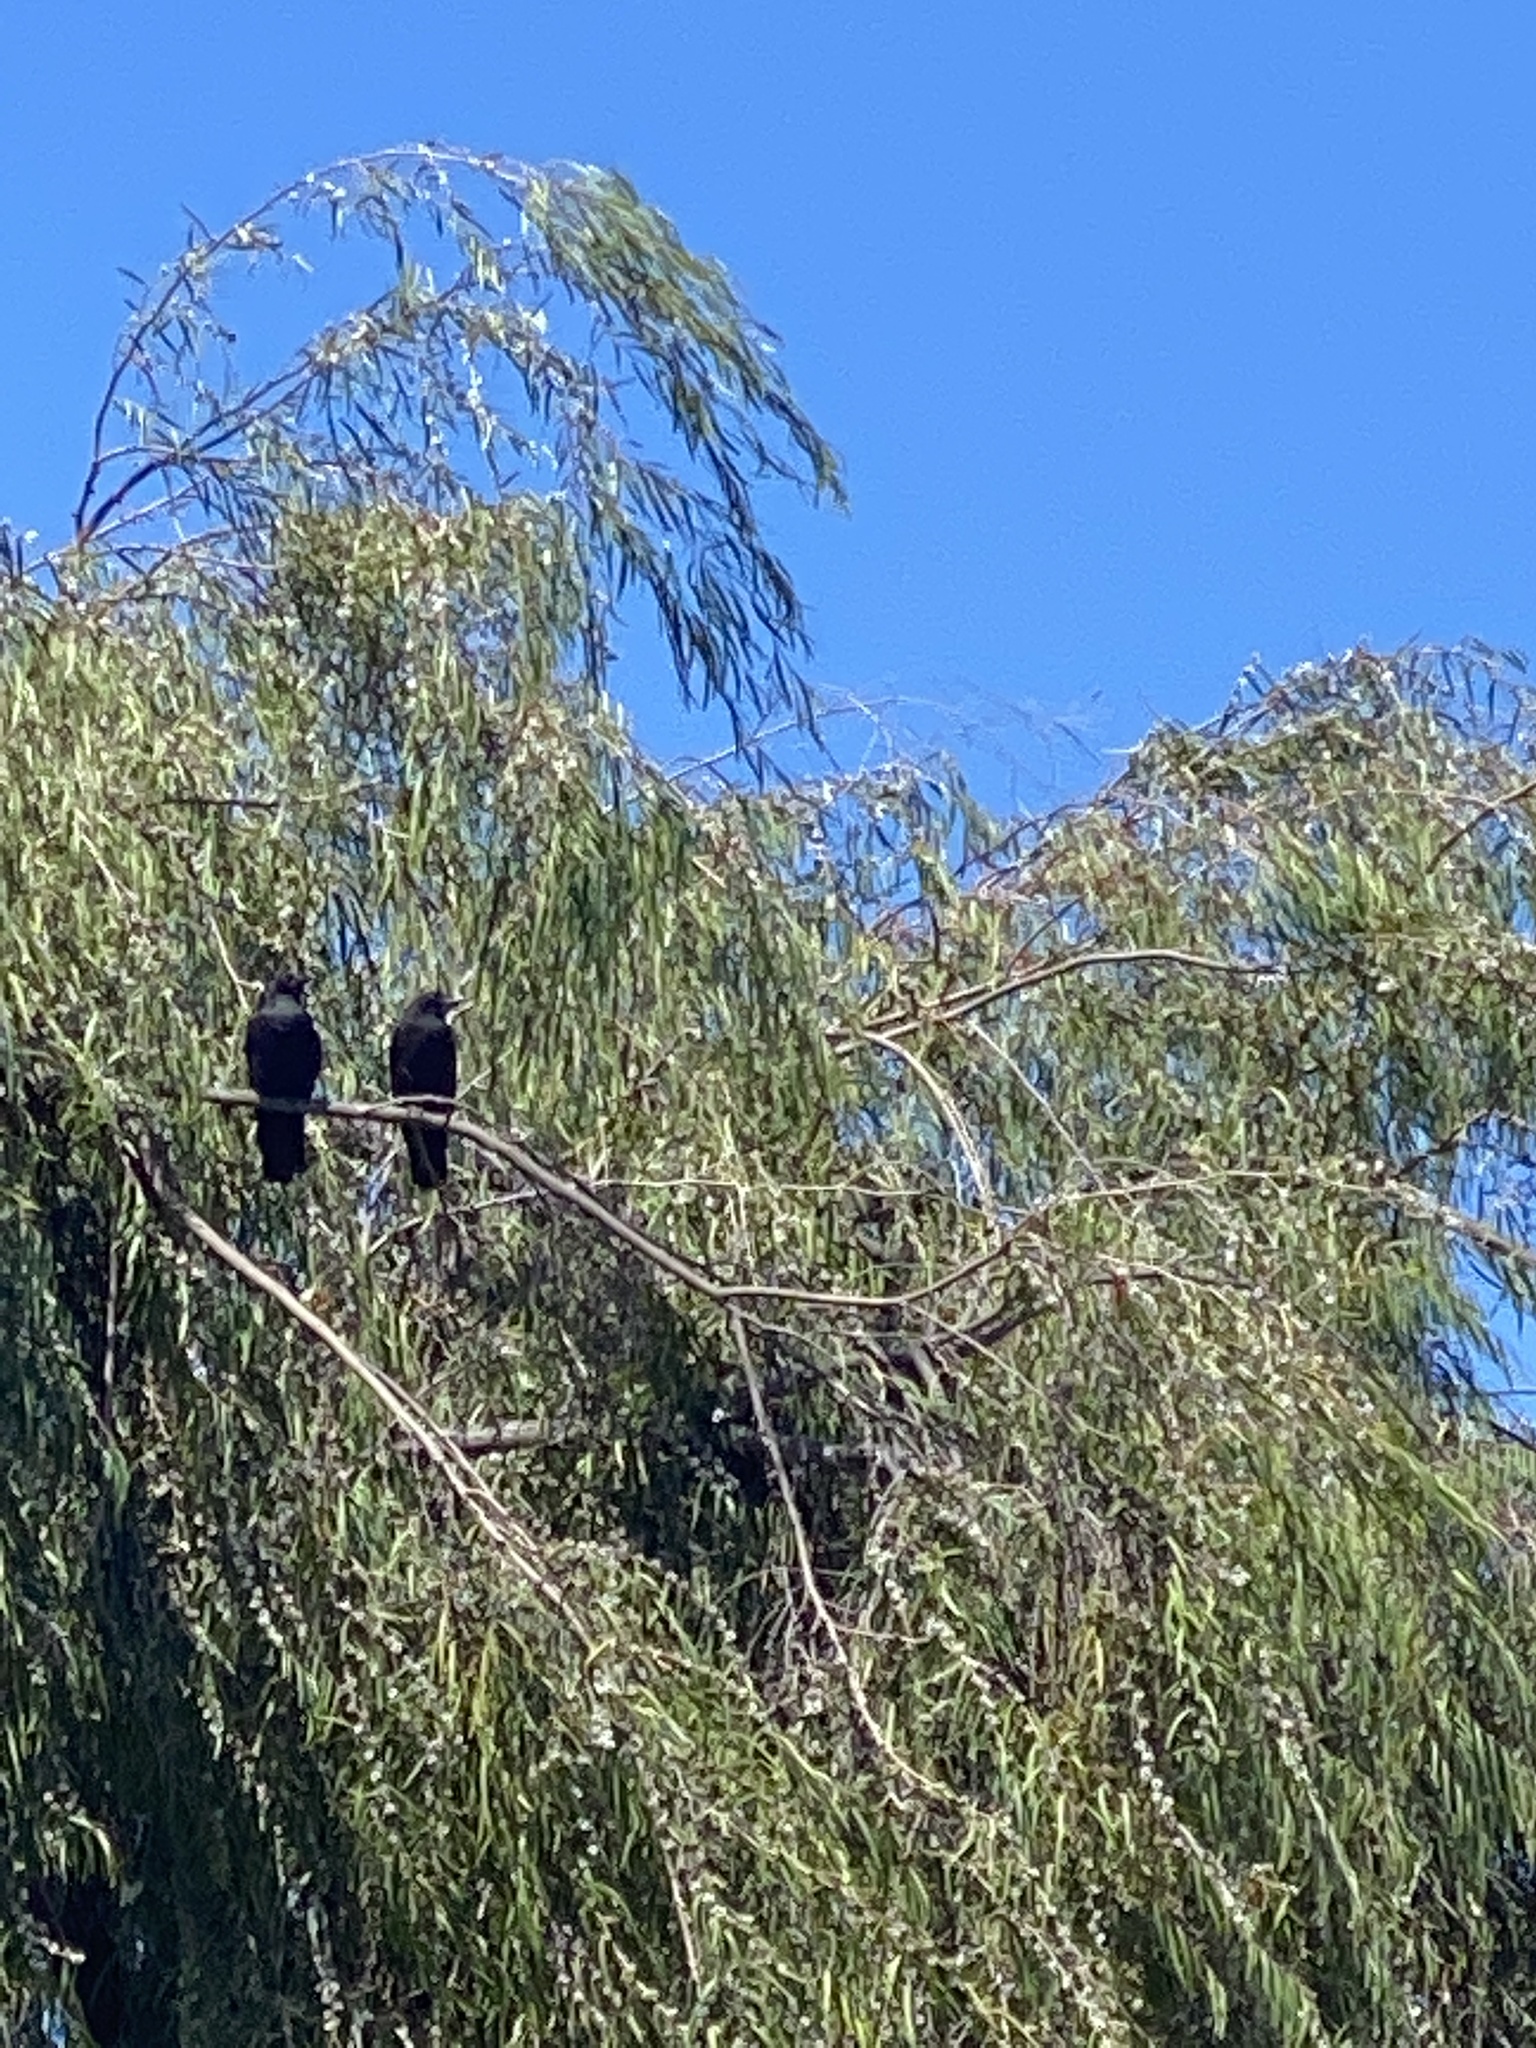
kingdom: Animalia
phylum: Chordata
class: Aves
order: Passeriformes
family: Corvidae
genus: Corvus
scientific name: Corvus brachyrhynchos
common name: American crow
